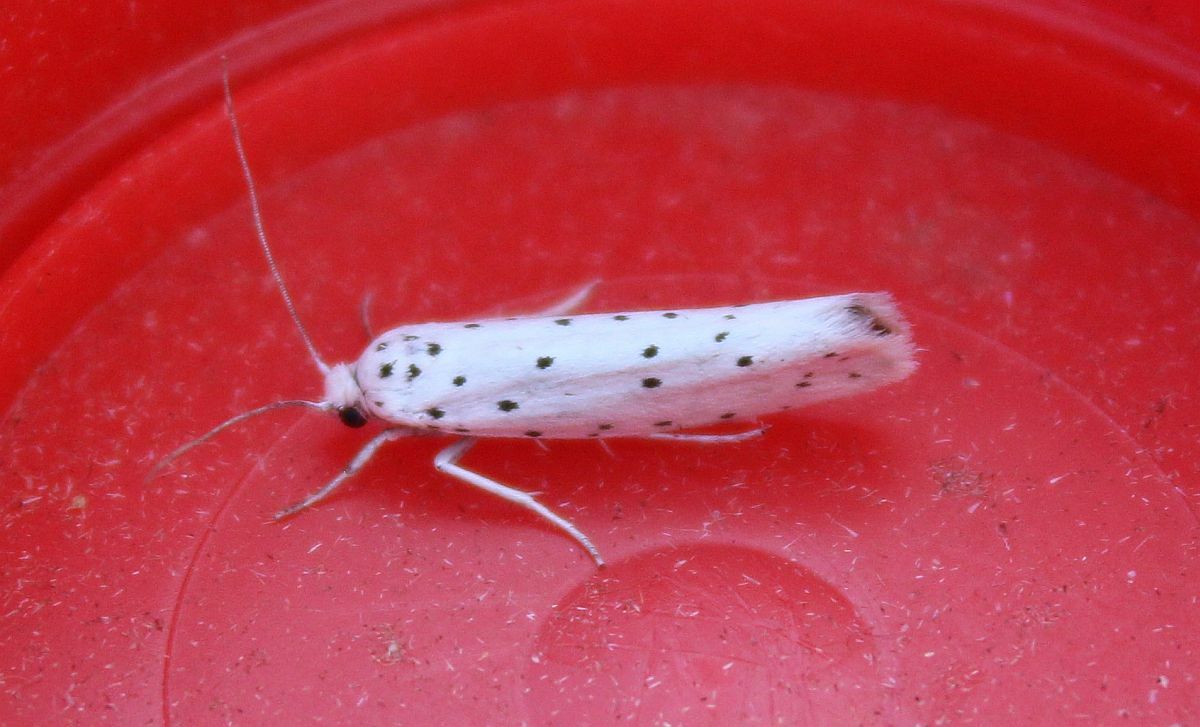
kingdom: Animalia
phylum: Arthropoda
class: Insecta
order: Lepidoptera
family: Yponomeutidae
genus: Yponomeuta
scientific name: Yponomeuta
